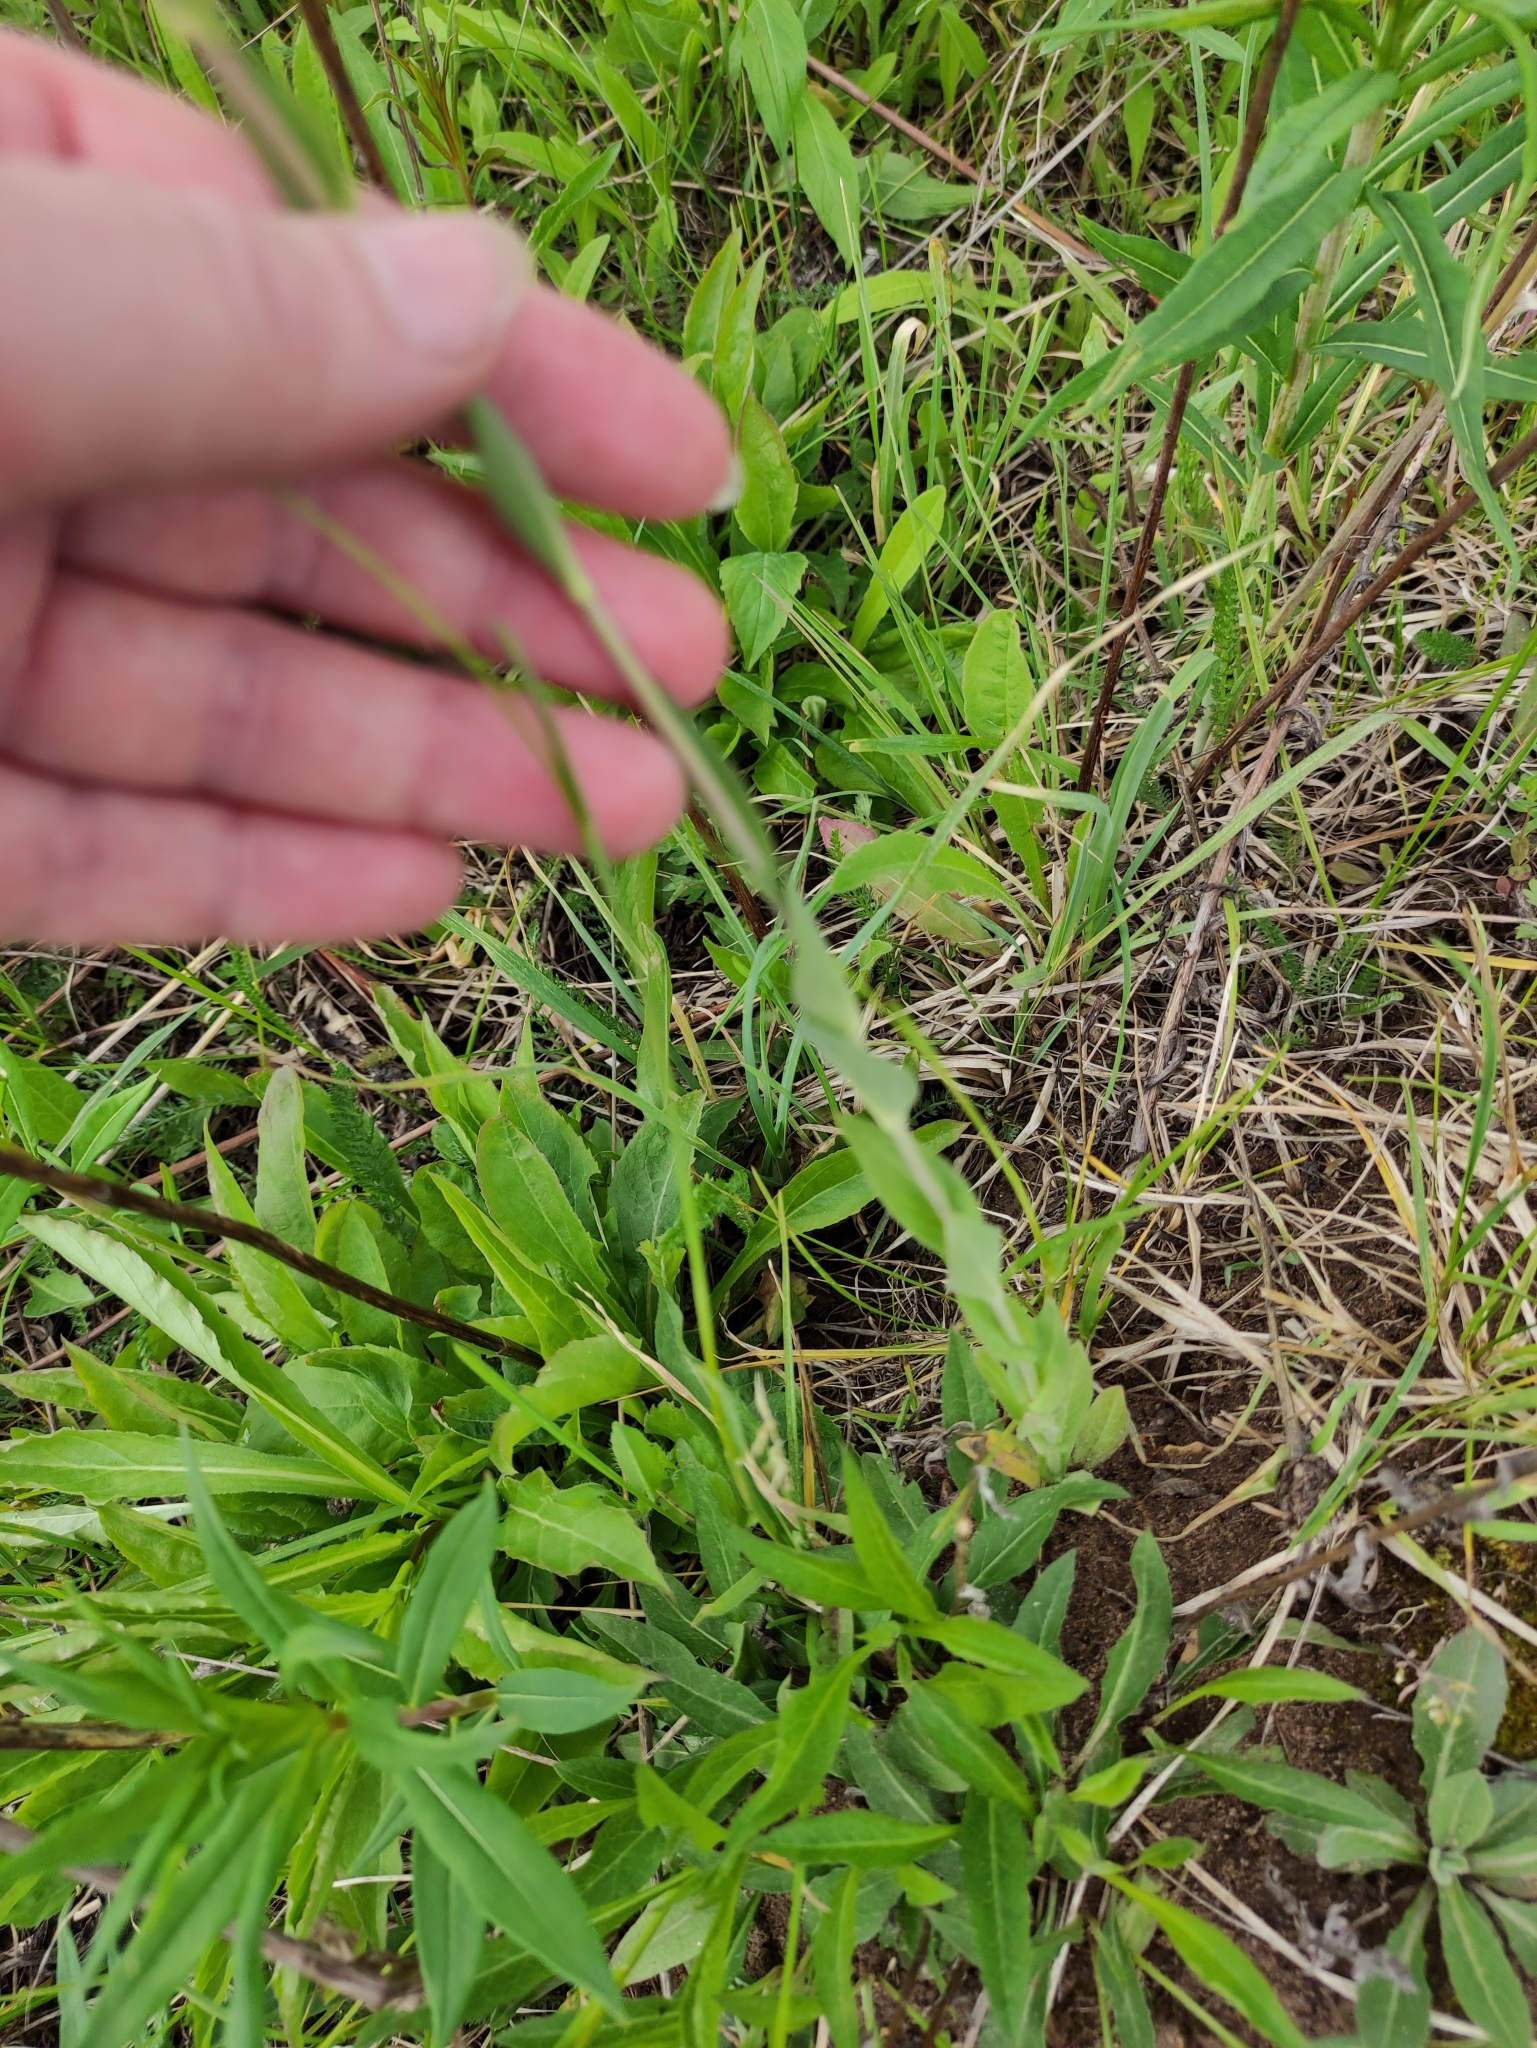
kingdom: Plantae
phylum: Tracheophyta
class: Magnoliopsida
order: Brassicales
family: Brassicaceae
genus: Turritis
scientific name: Turritis glabra
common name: Tower rockcress
